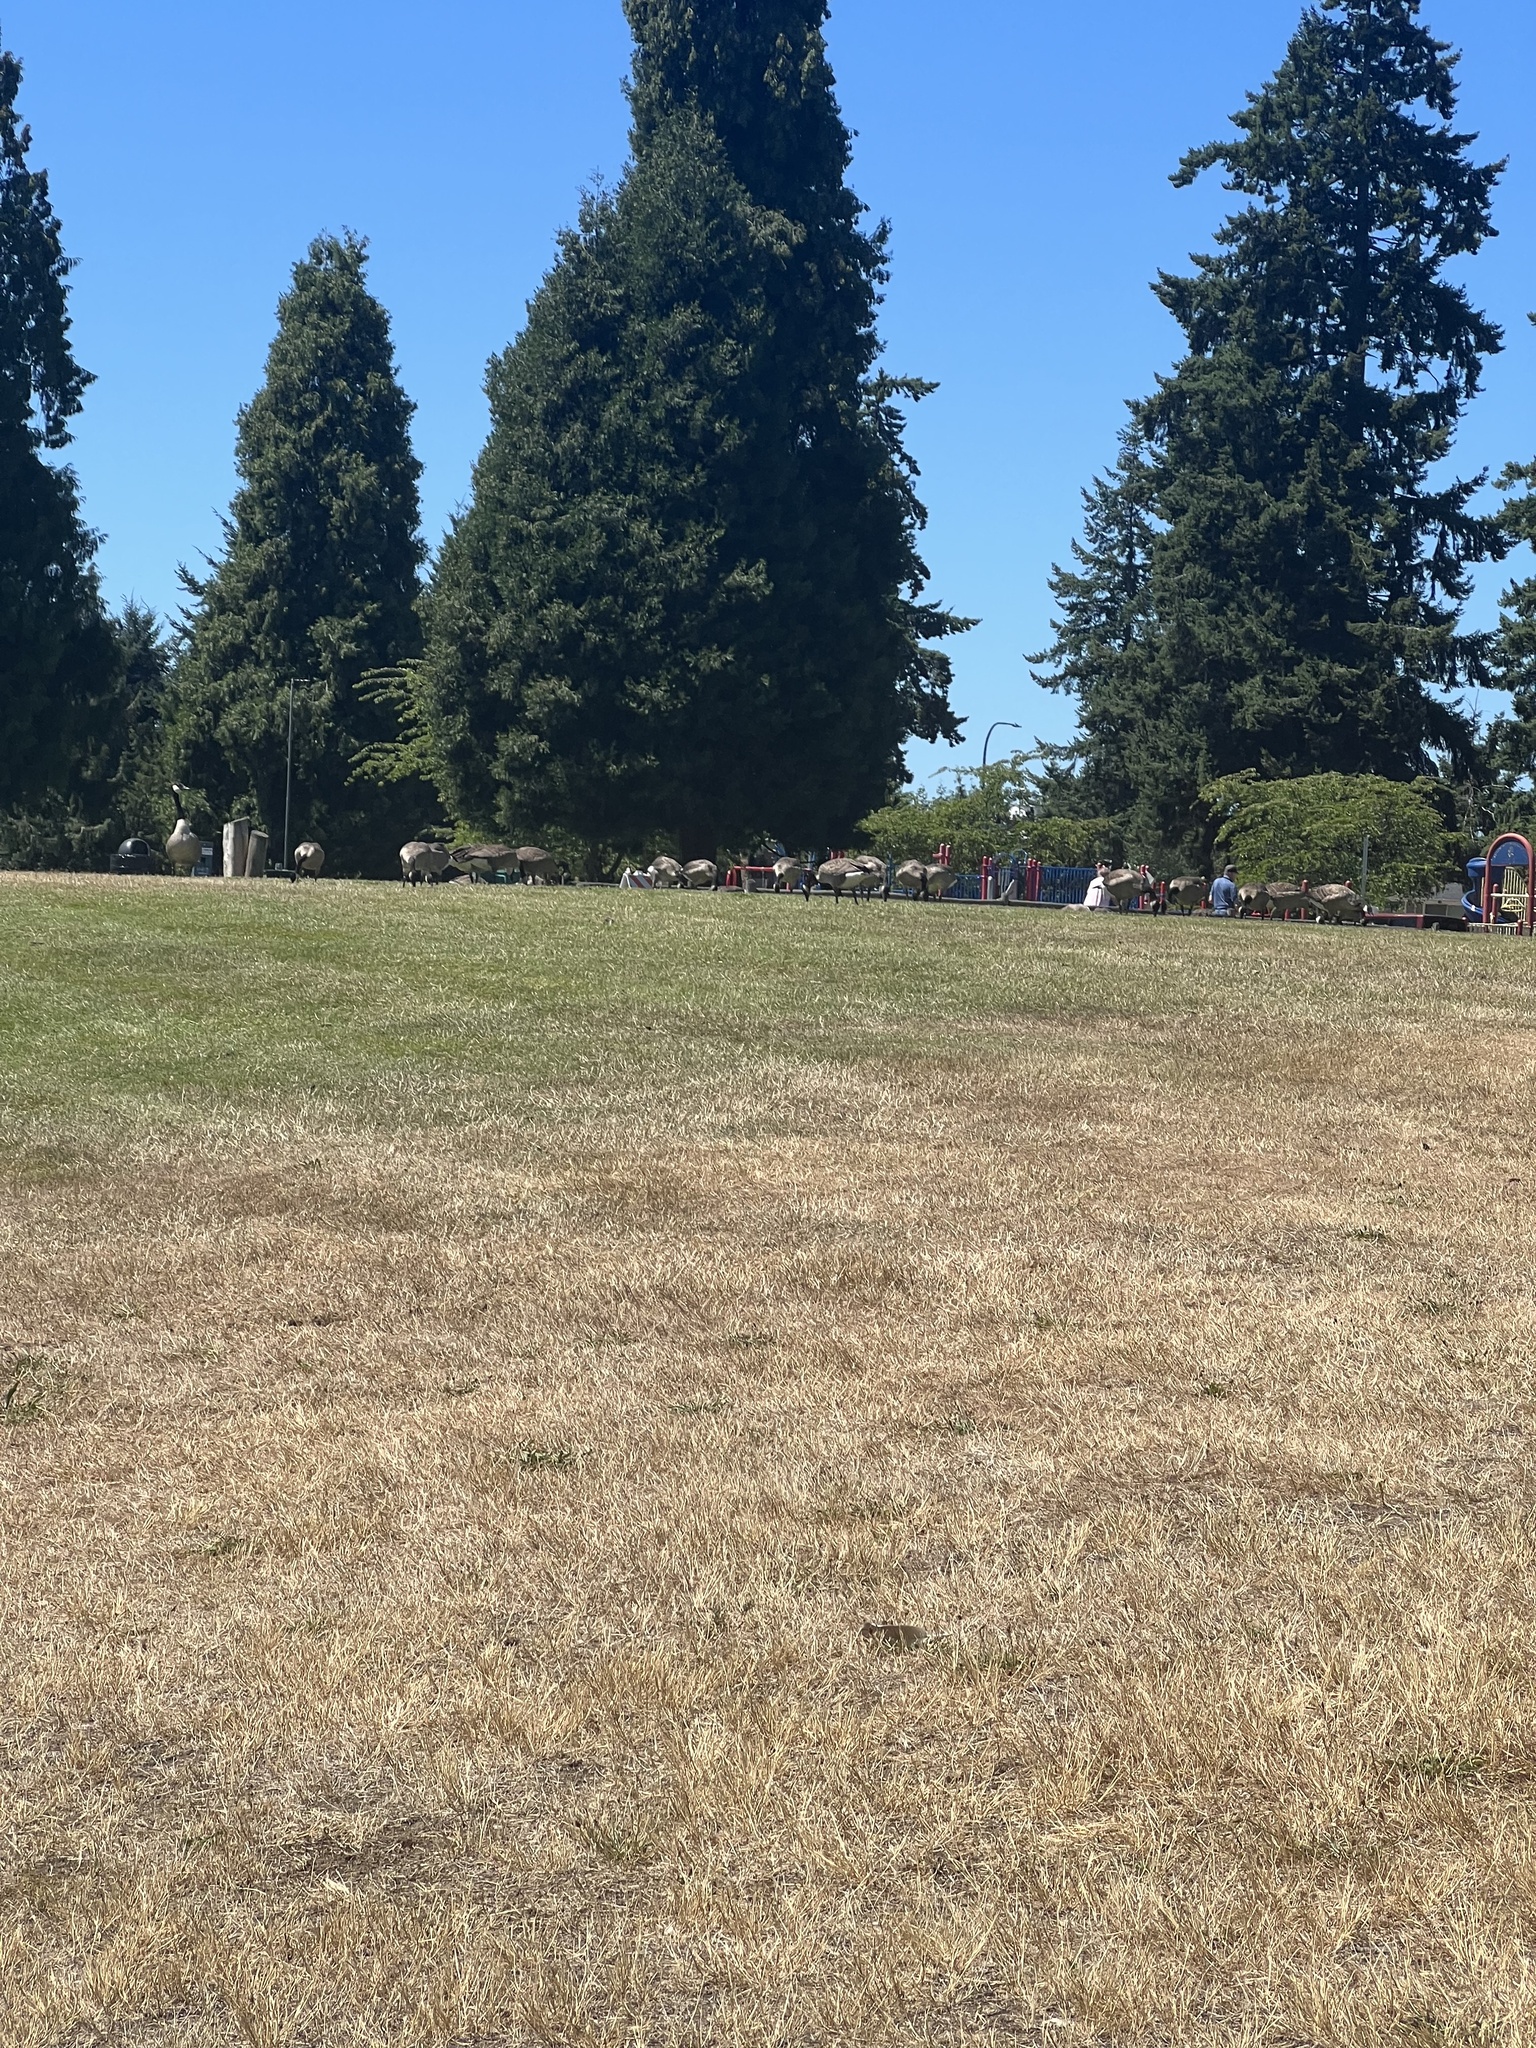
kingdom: Animalia
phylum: Chordata
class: Aves
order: Anseriformes
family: Anatidae
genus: Branta
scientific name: Branta canadensis
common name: Canada goose
